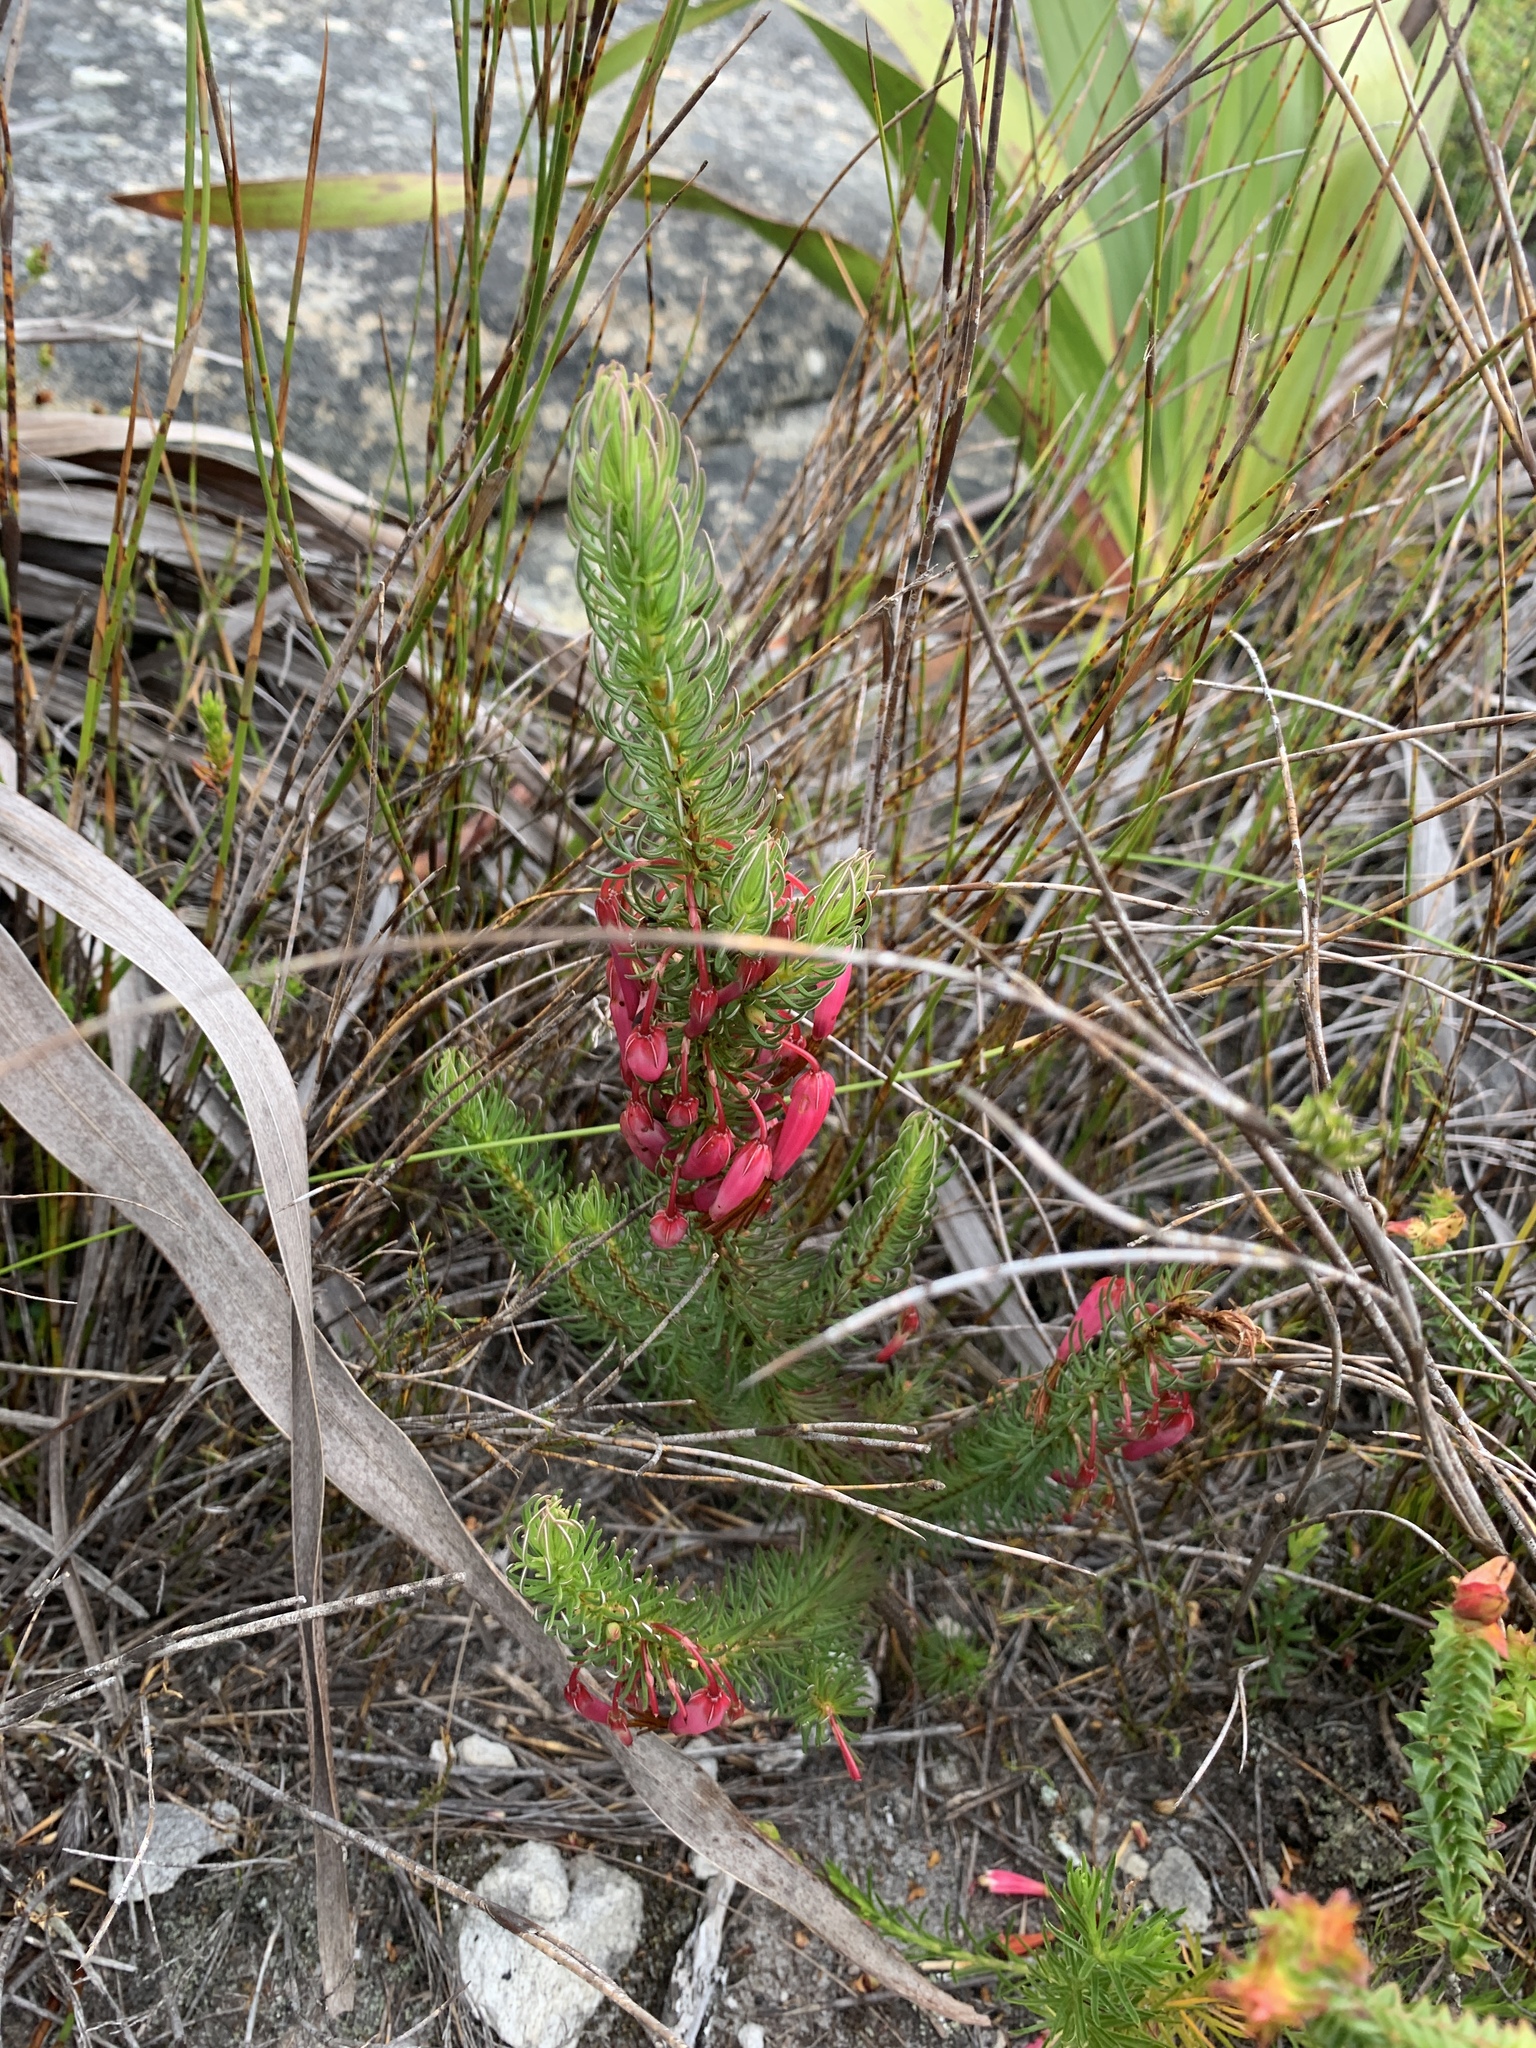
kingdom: Plantae
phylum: Tracheophyta
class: Magnoliopsida
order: Ericales
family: Ericaceae
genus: Erica
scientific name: Erica plukenetii
